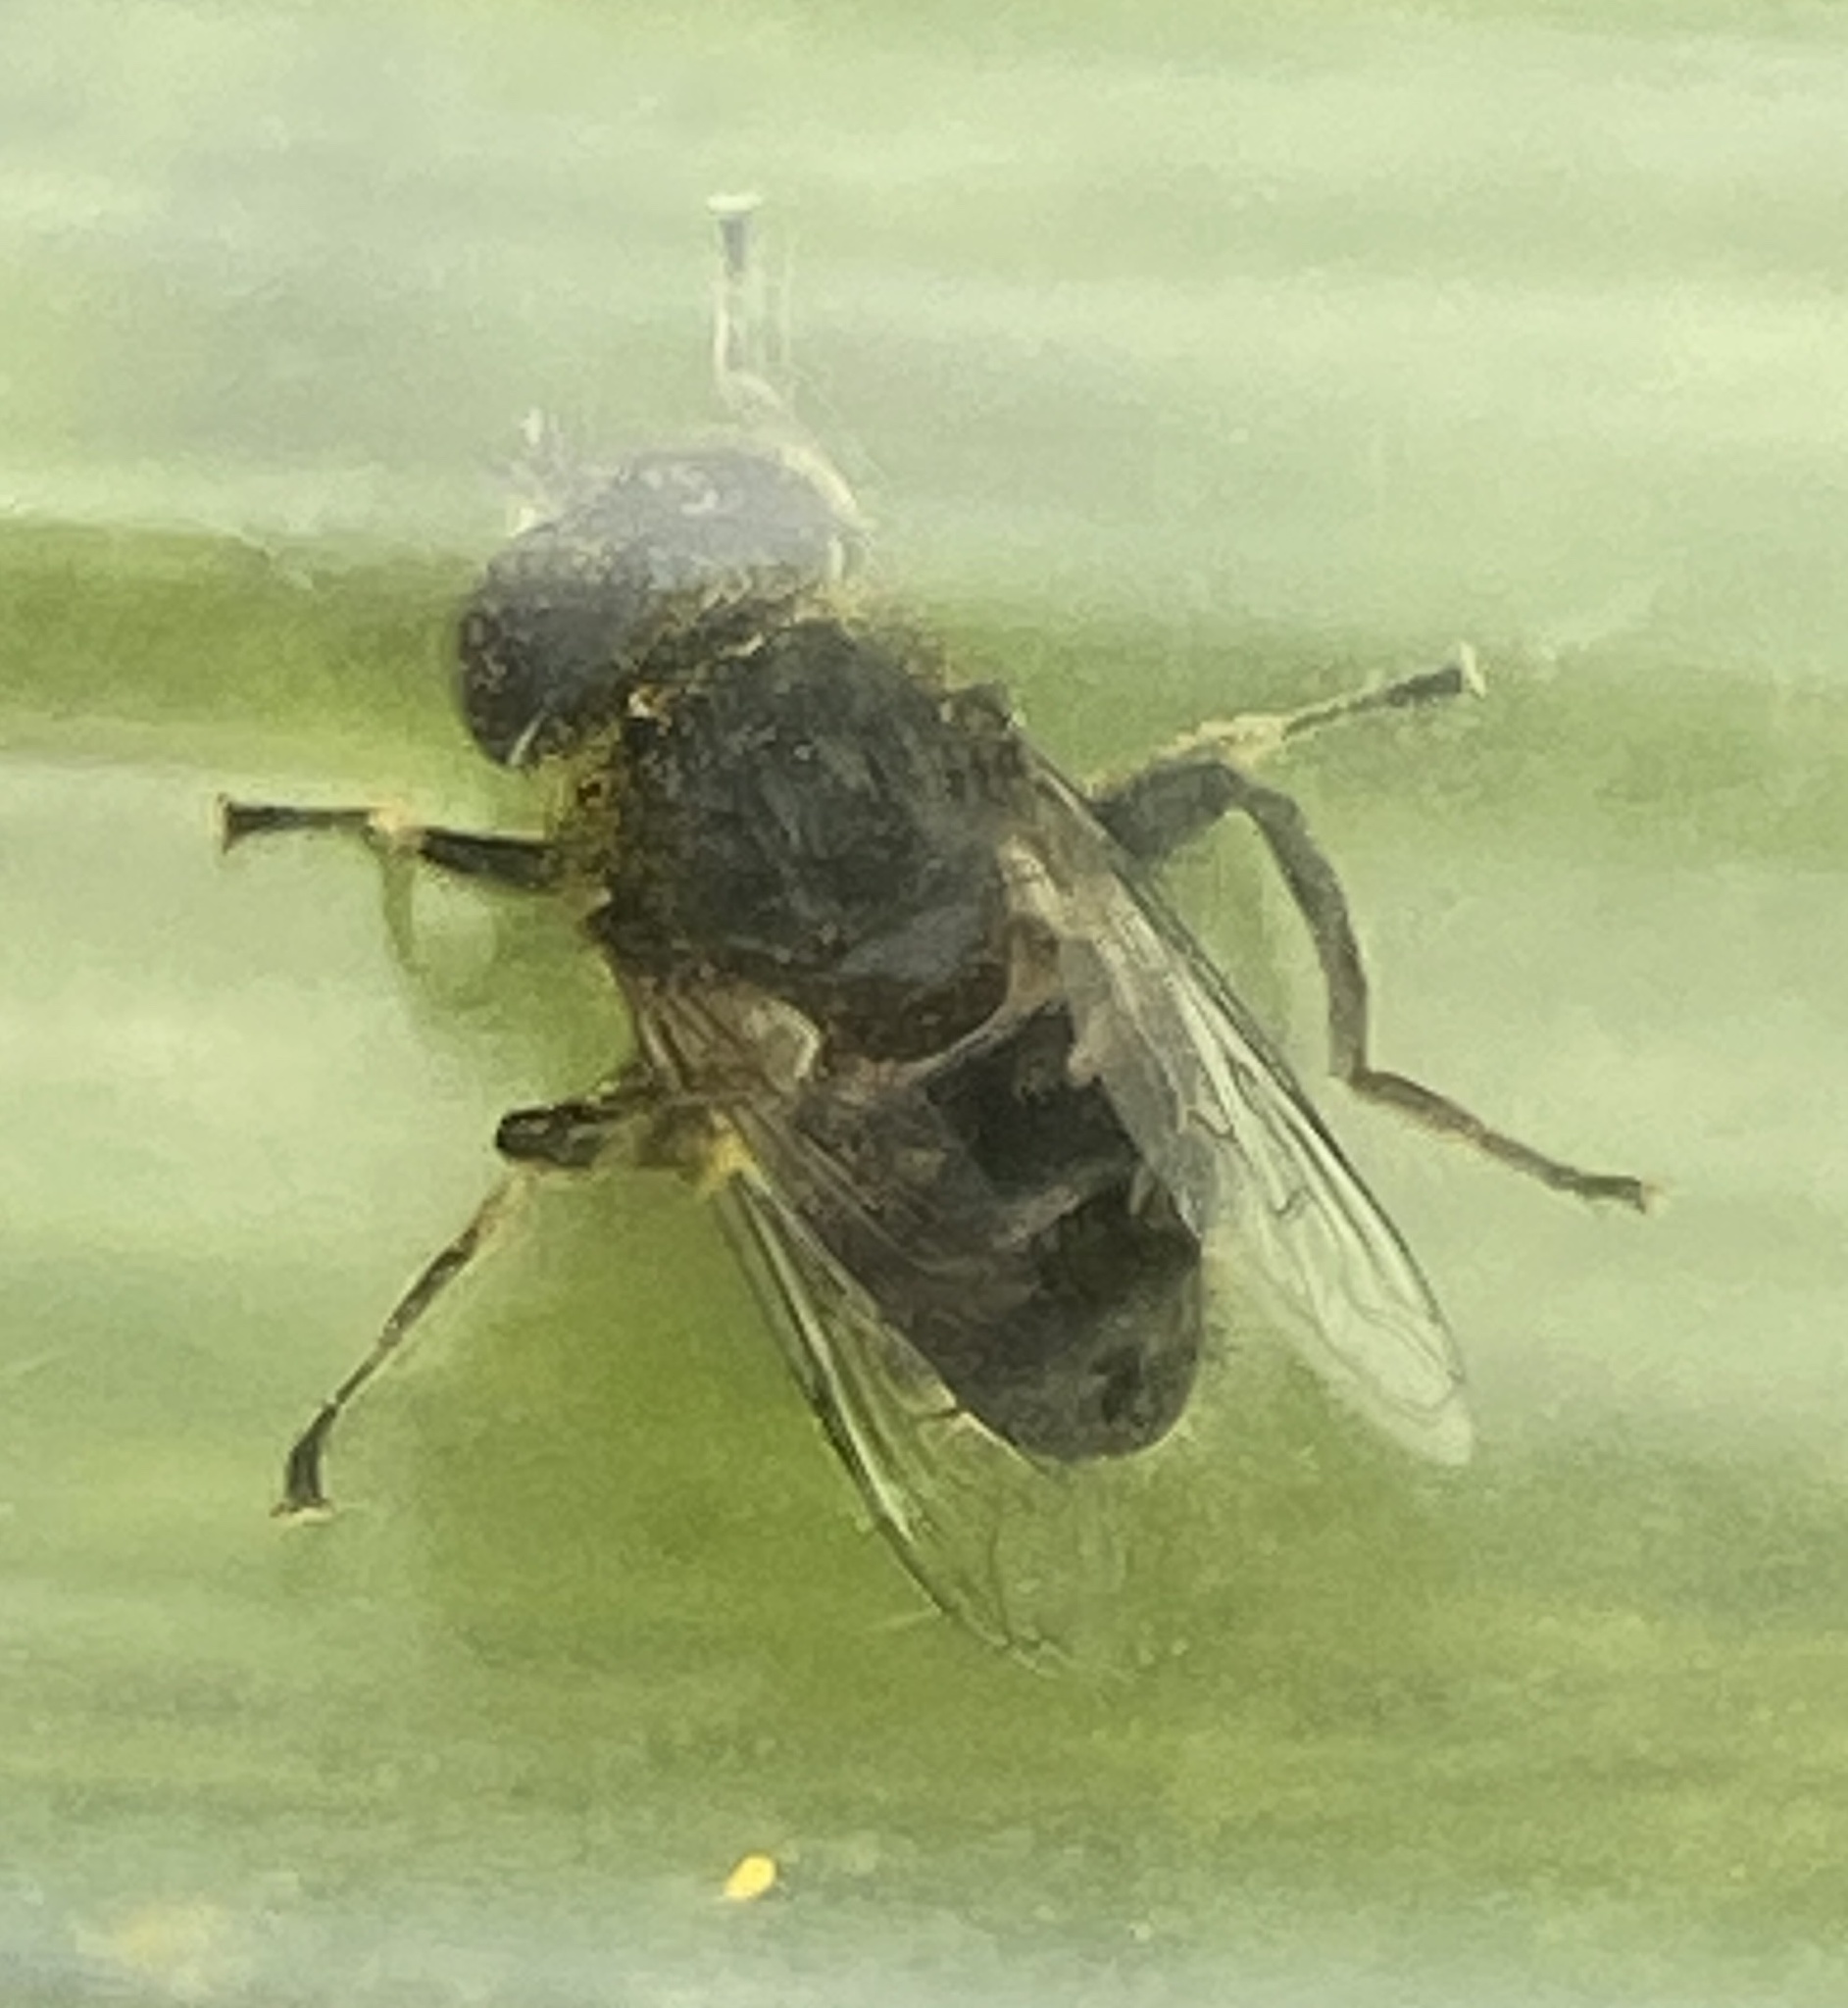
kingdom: Animalia
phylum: Arthropoda
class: Insecta
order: Diptera
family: Syrphidae
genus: Eristalinus
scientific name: Eristalinus sepulchralis
